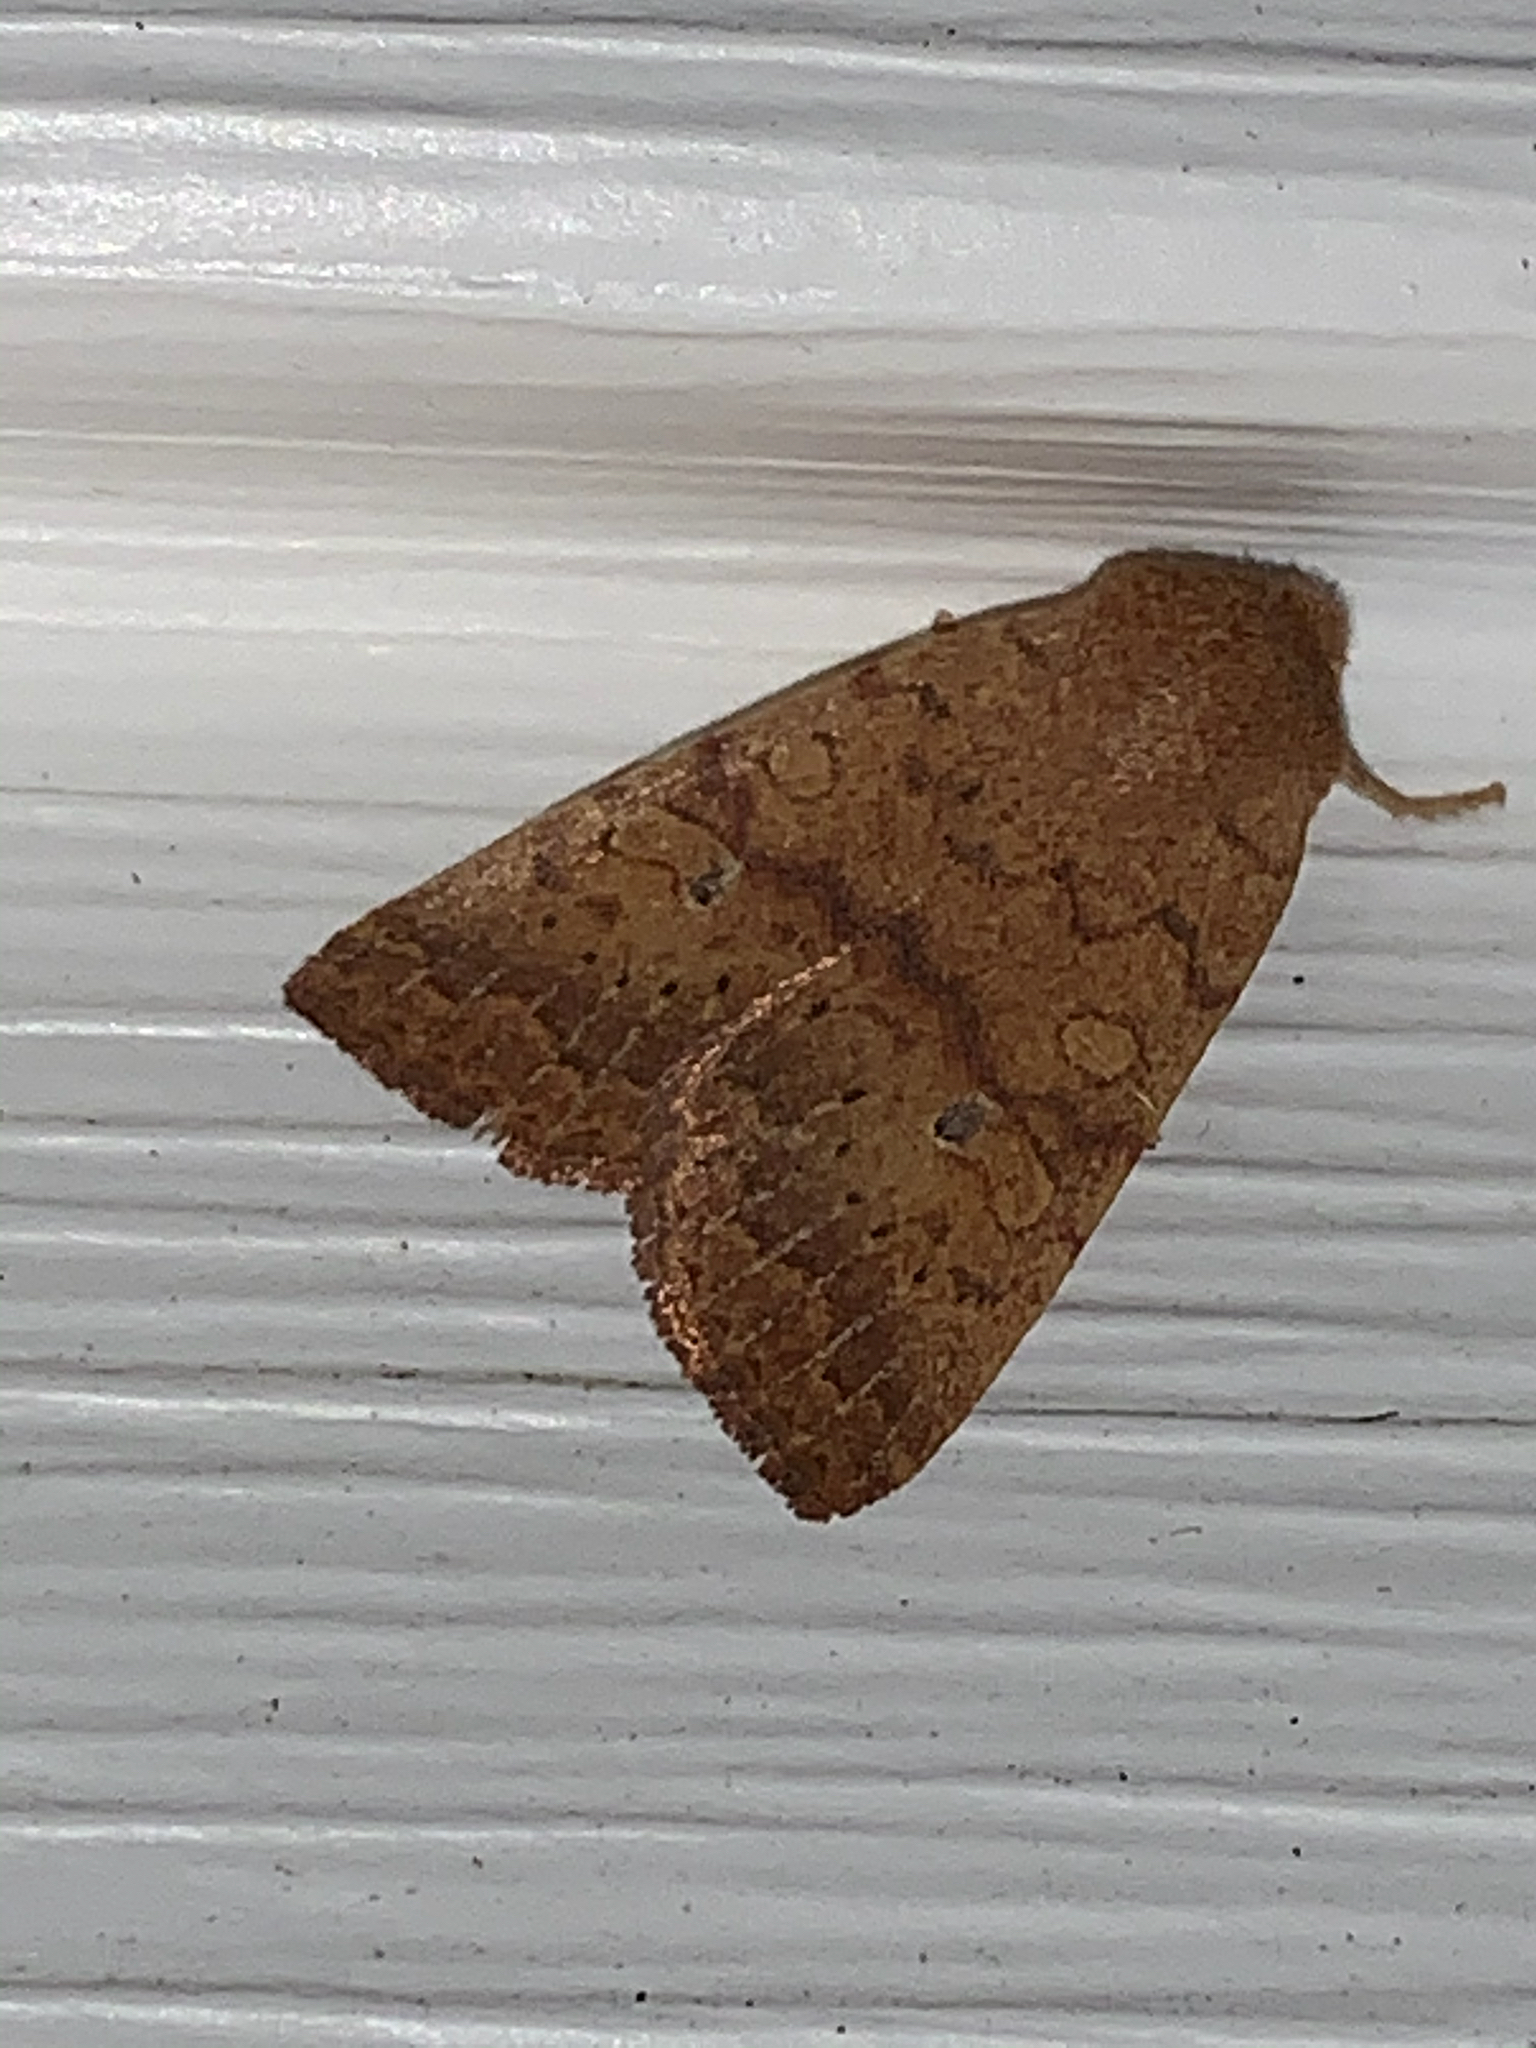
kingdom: Animalia
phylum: Arthropoda
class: Insecta
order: Lepidoptera
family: Noctuidae
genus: Agrochola
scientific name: Agrochola bicolorago
